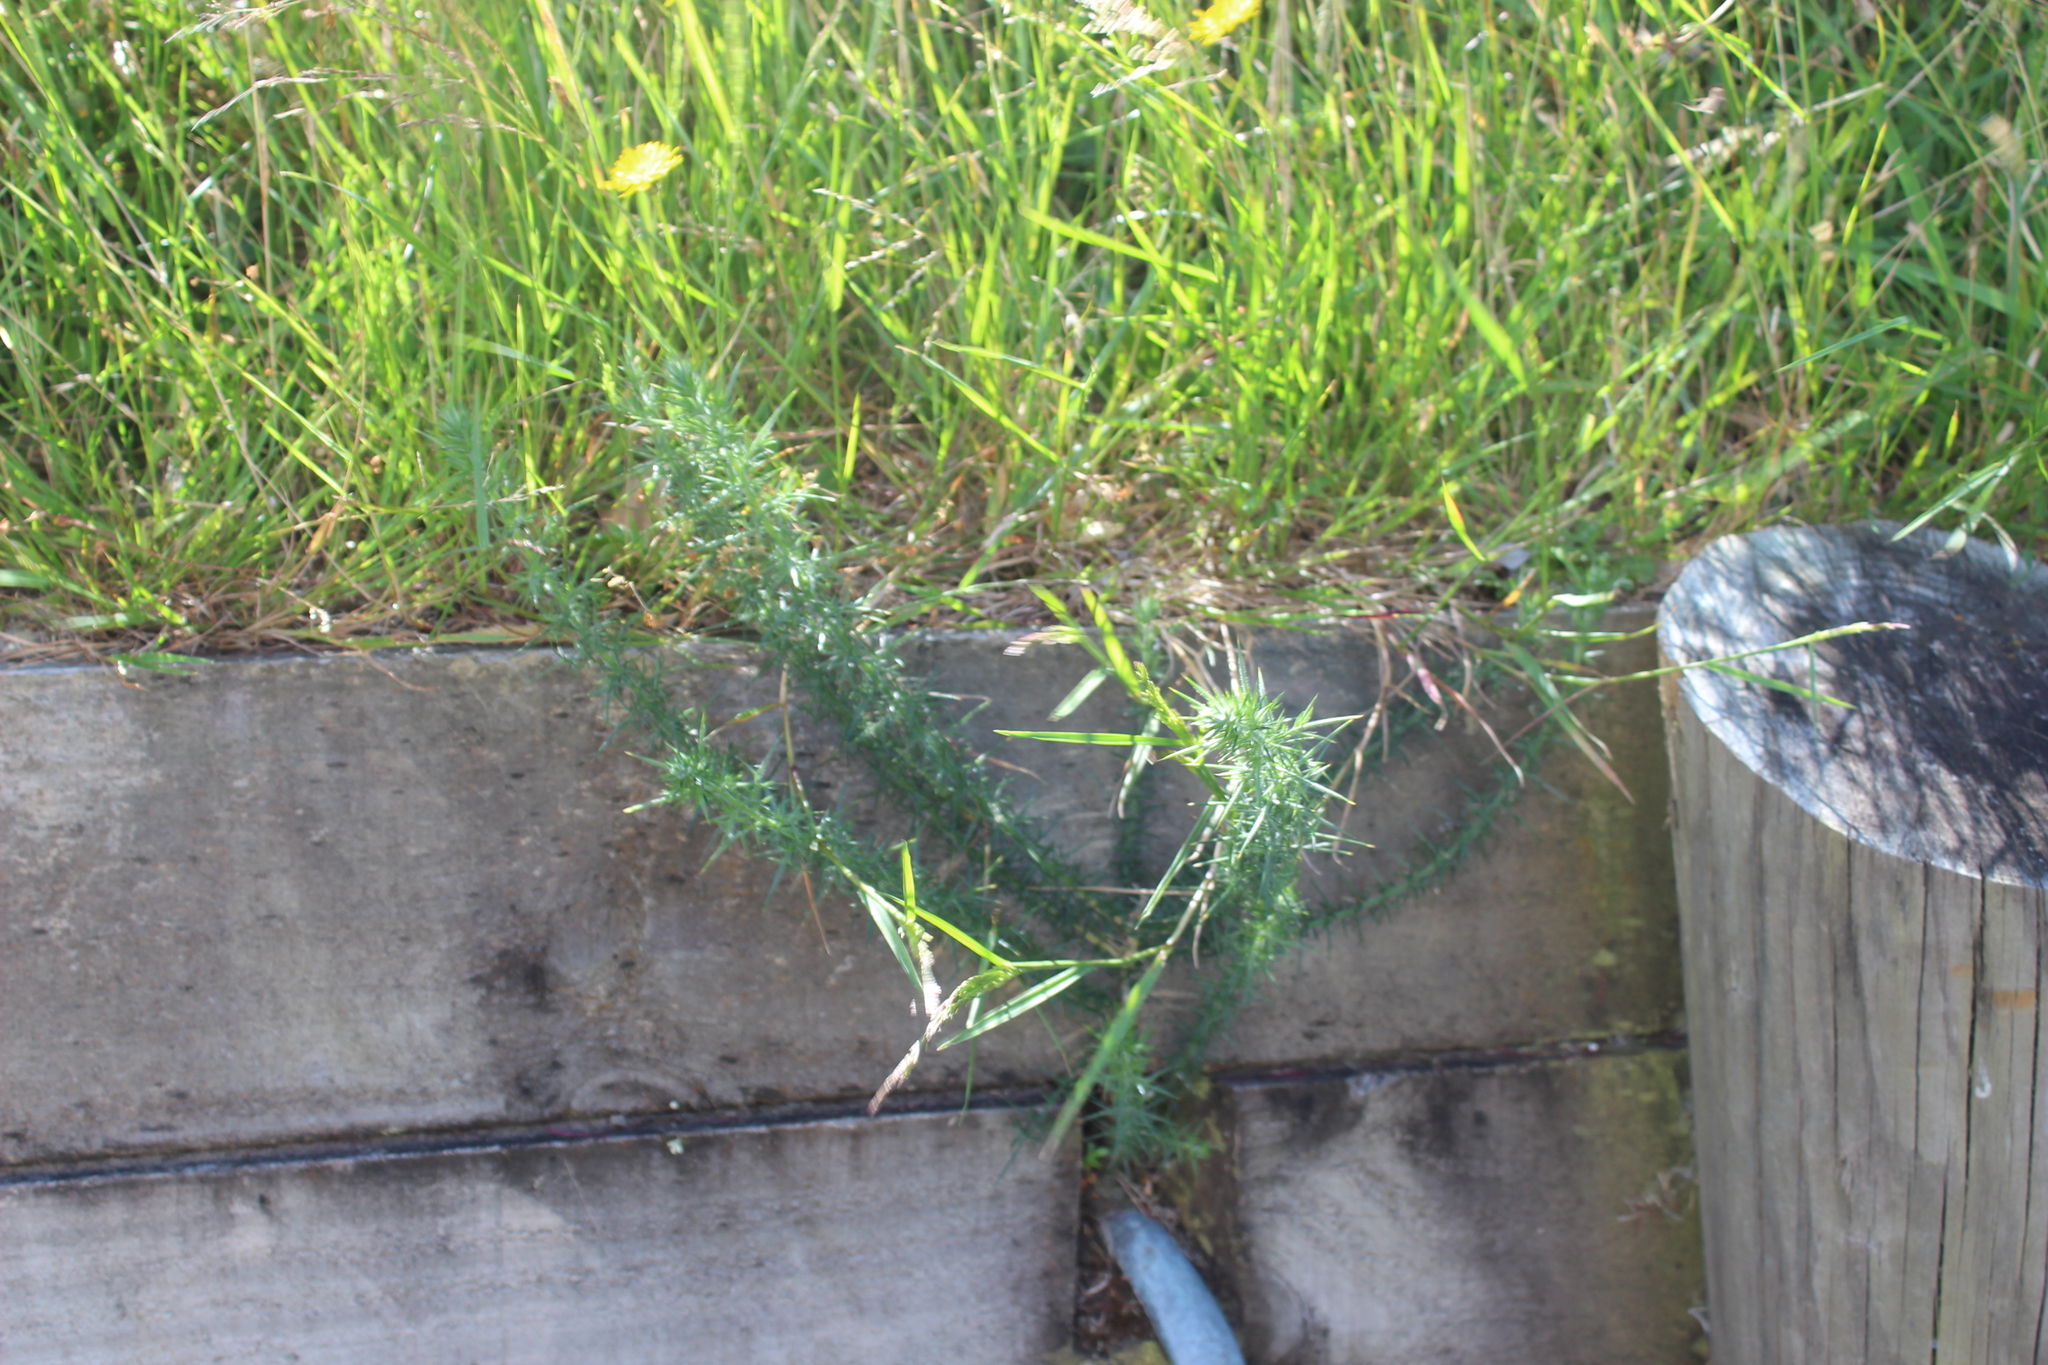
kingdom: Plantae
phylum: Tracheophyta
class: Magnoliopsida
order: Fabales
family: Fabaceae
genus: Ulex
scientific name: Ulex europaeus
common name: Common gorse
